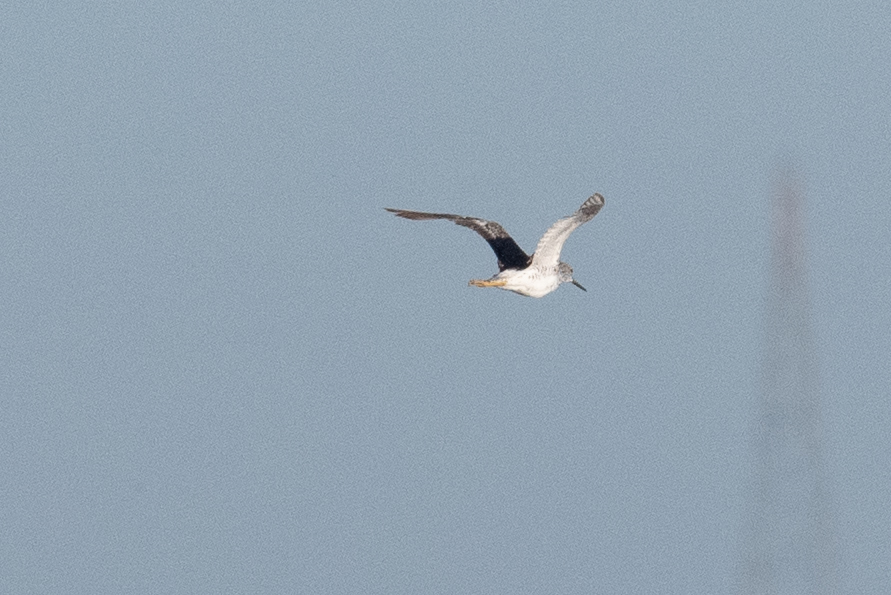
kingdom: Animalia
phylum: Chordata
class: Aves
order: Charadriiformes
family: Scolopacidae
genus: Tringa
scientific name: Tringa melanoleuca
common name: Greater yellowlegs
